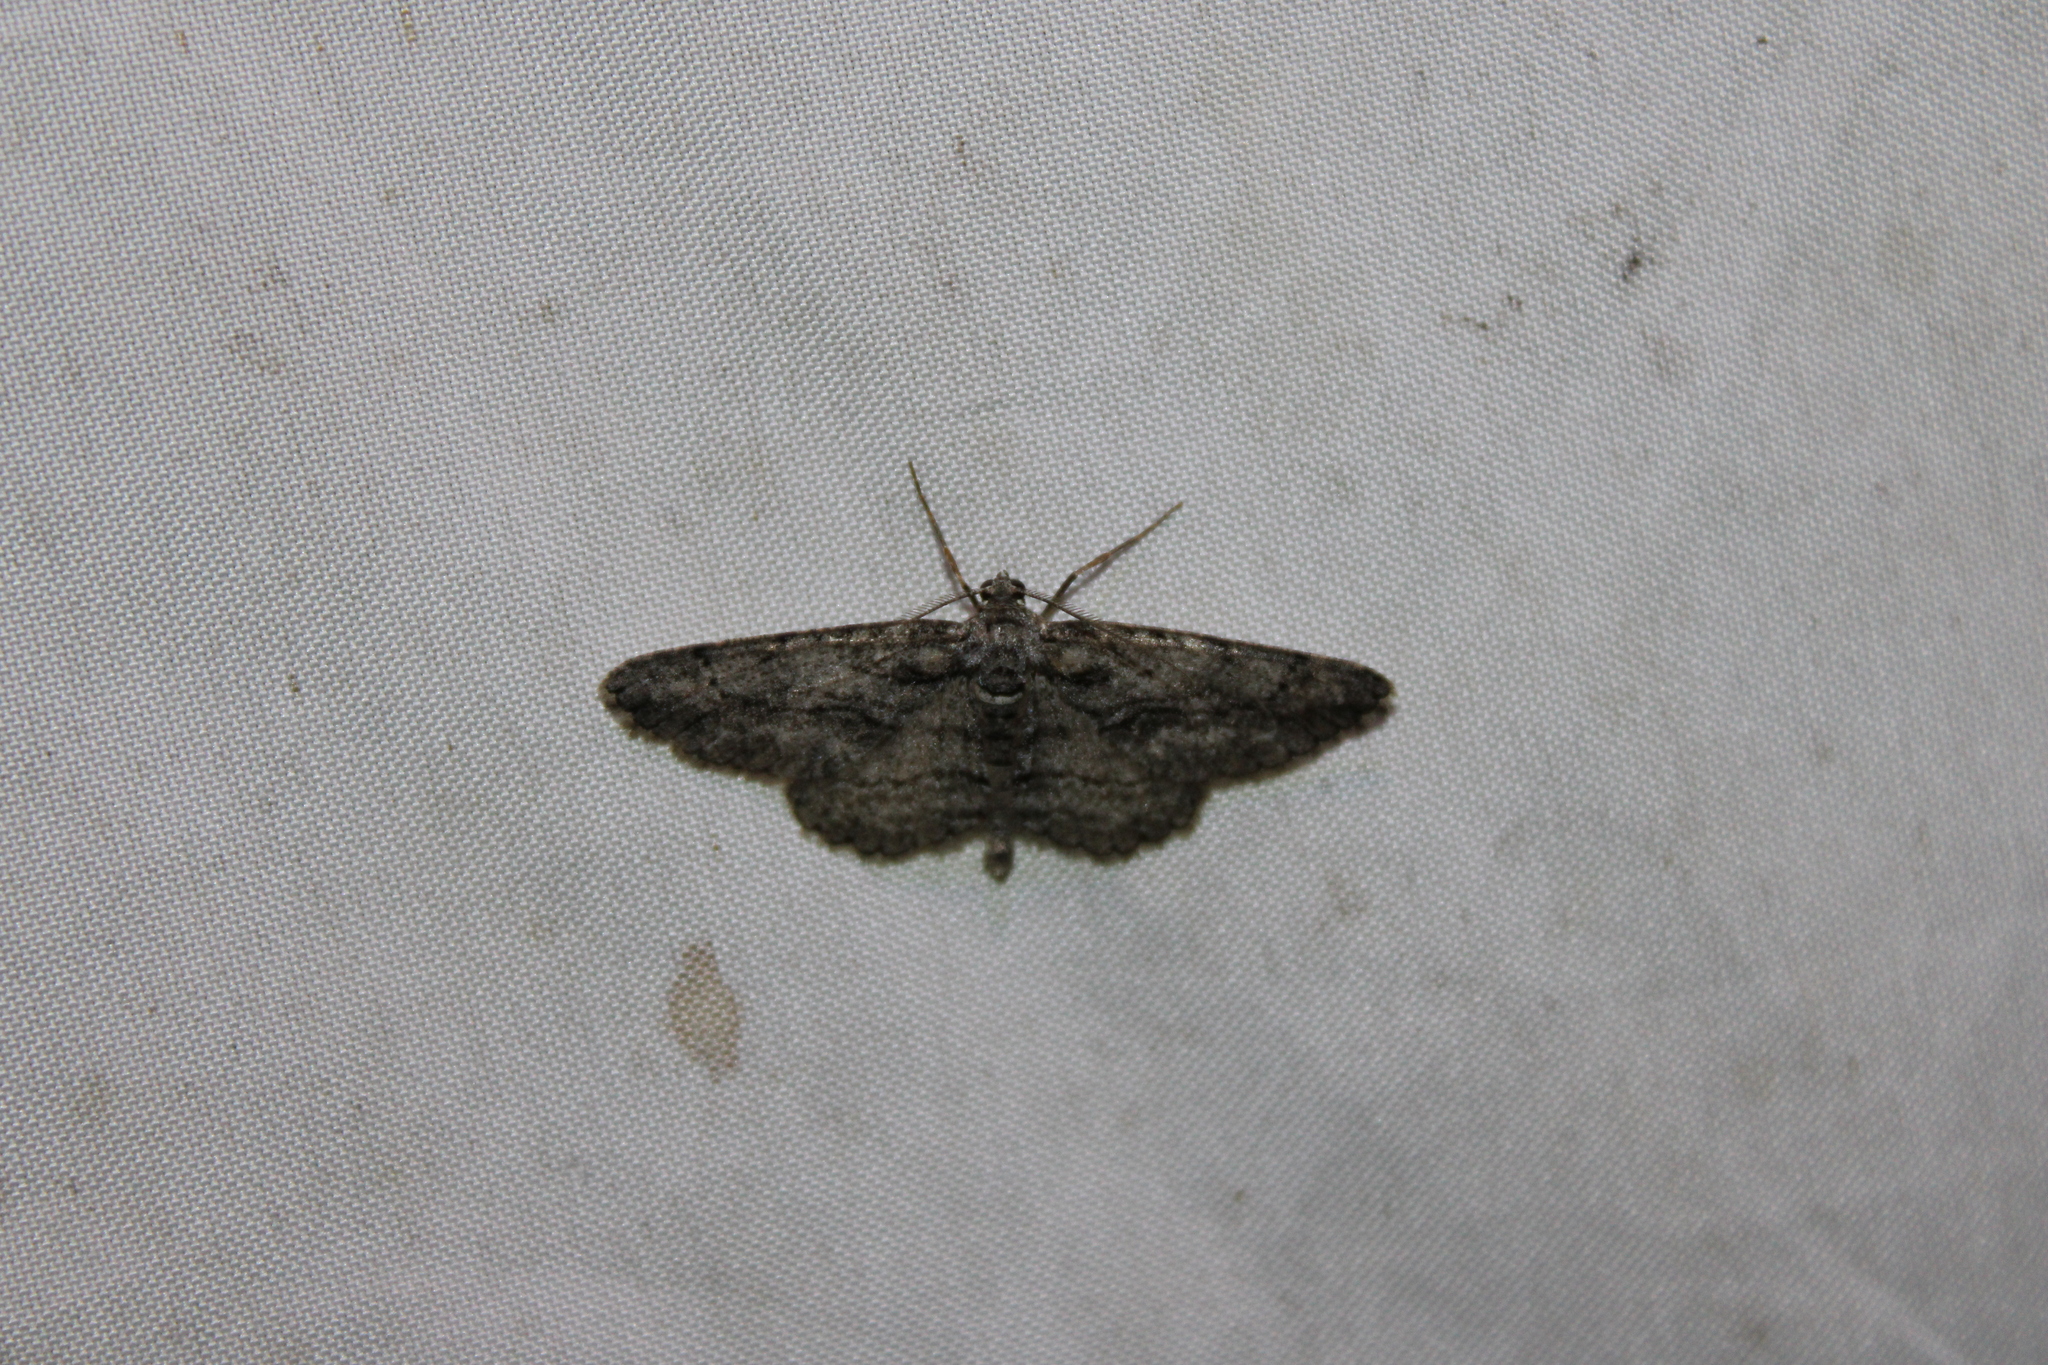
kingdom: Animalia
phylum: Arthropoda
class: Insecta
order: Lepidoptera
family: Geometridae
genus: Anavitrinella
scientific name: Anavitrinella pampinaria
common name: Common gray
